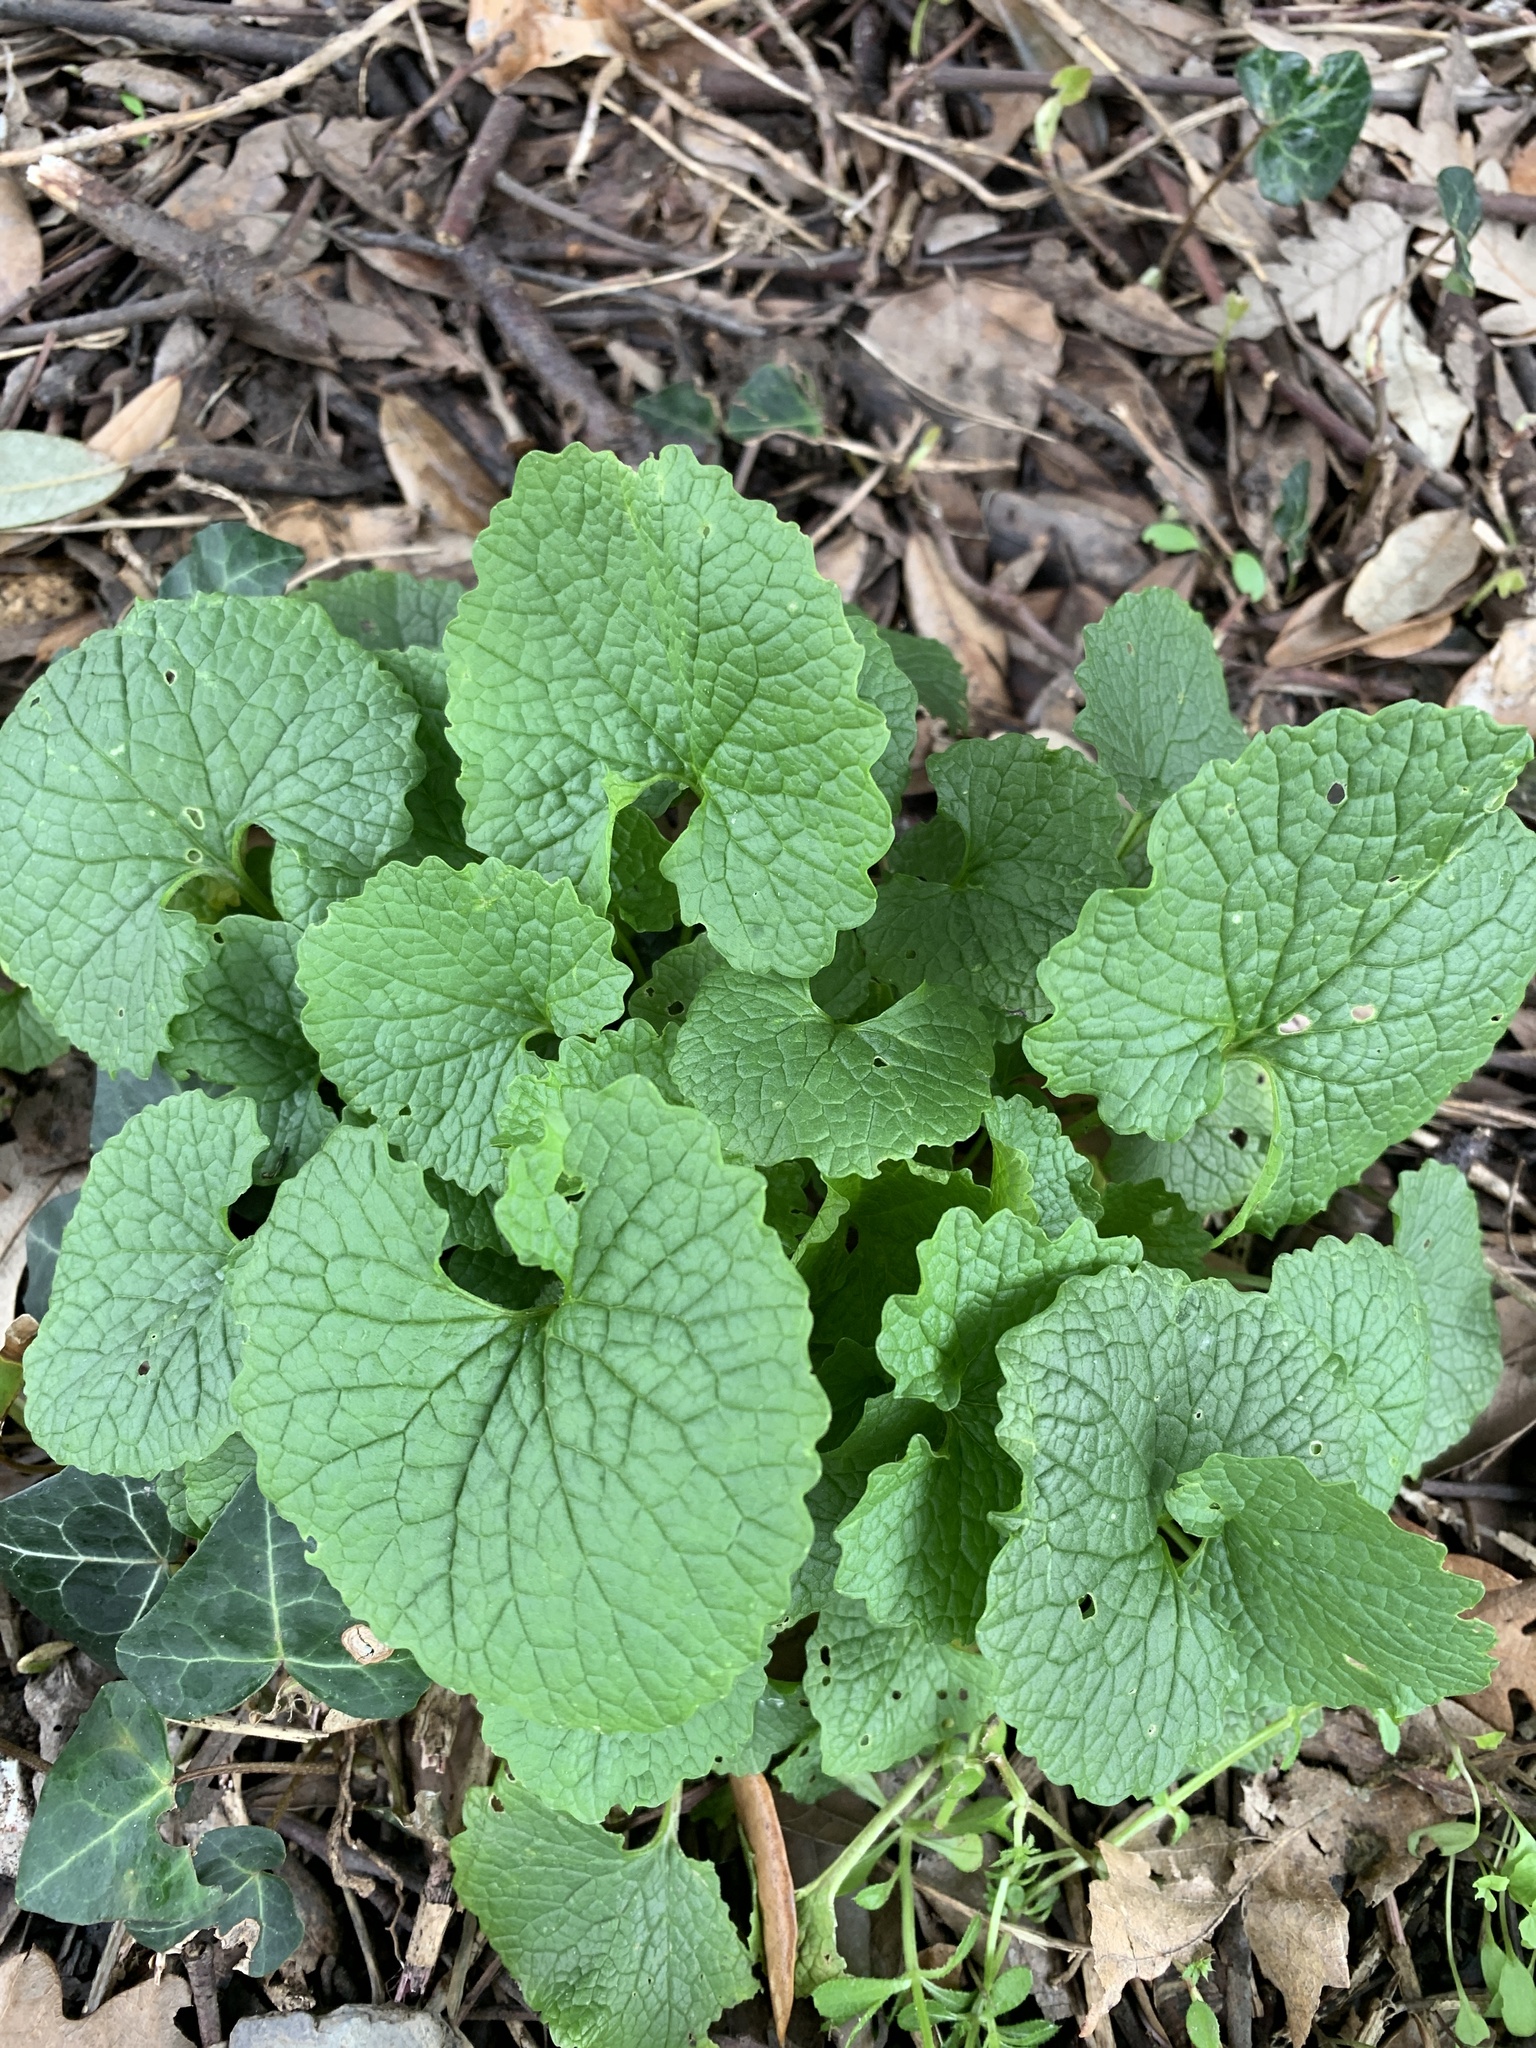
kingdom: Plantae
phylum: Tracheophyta
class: Magnoliopsida
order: Brassicales
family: Brassicaceae
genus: Alliaria
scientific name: Alliaria petiolata
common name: Garlic mustard
